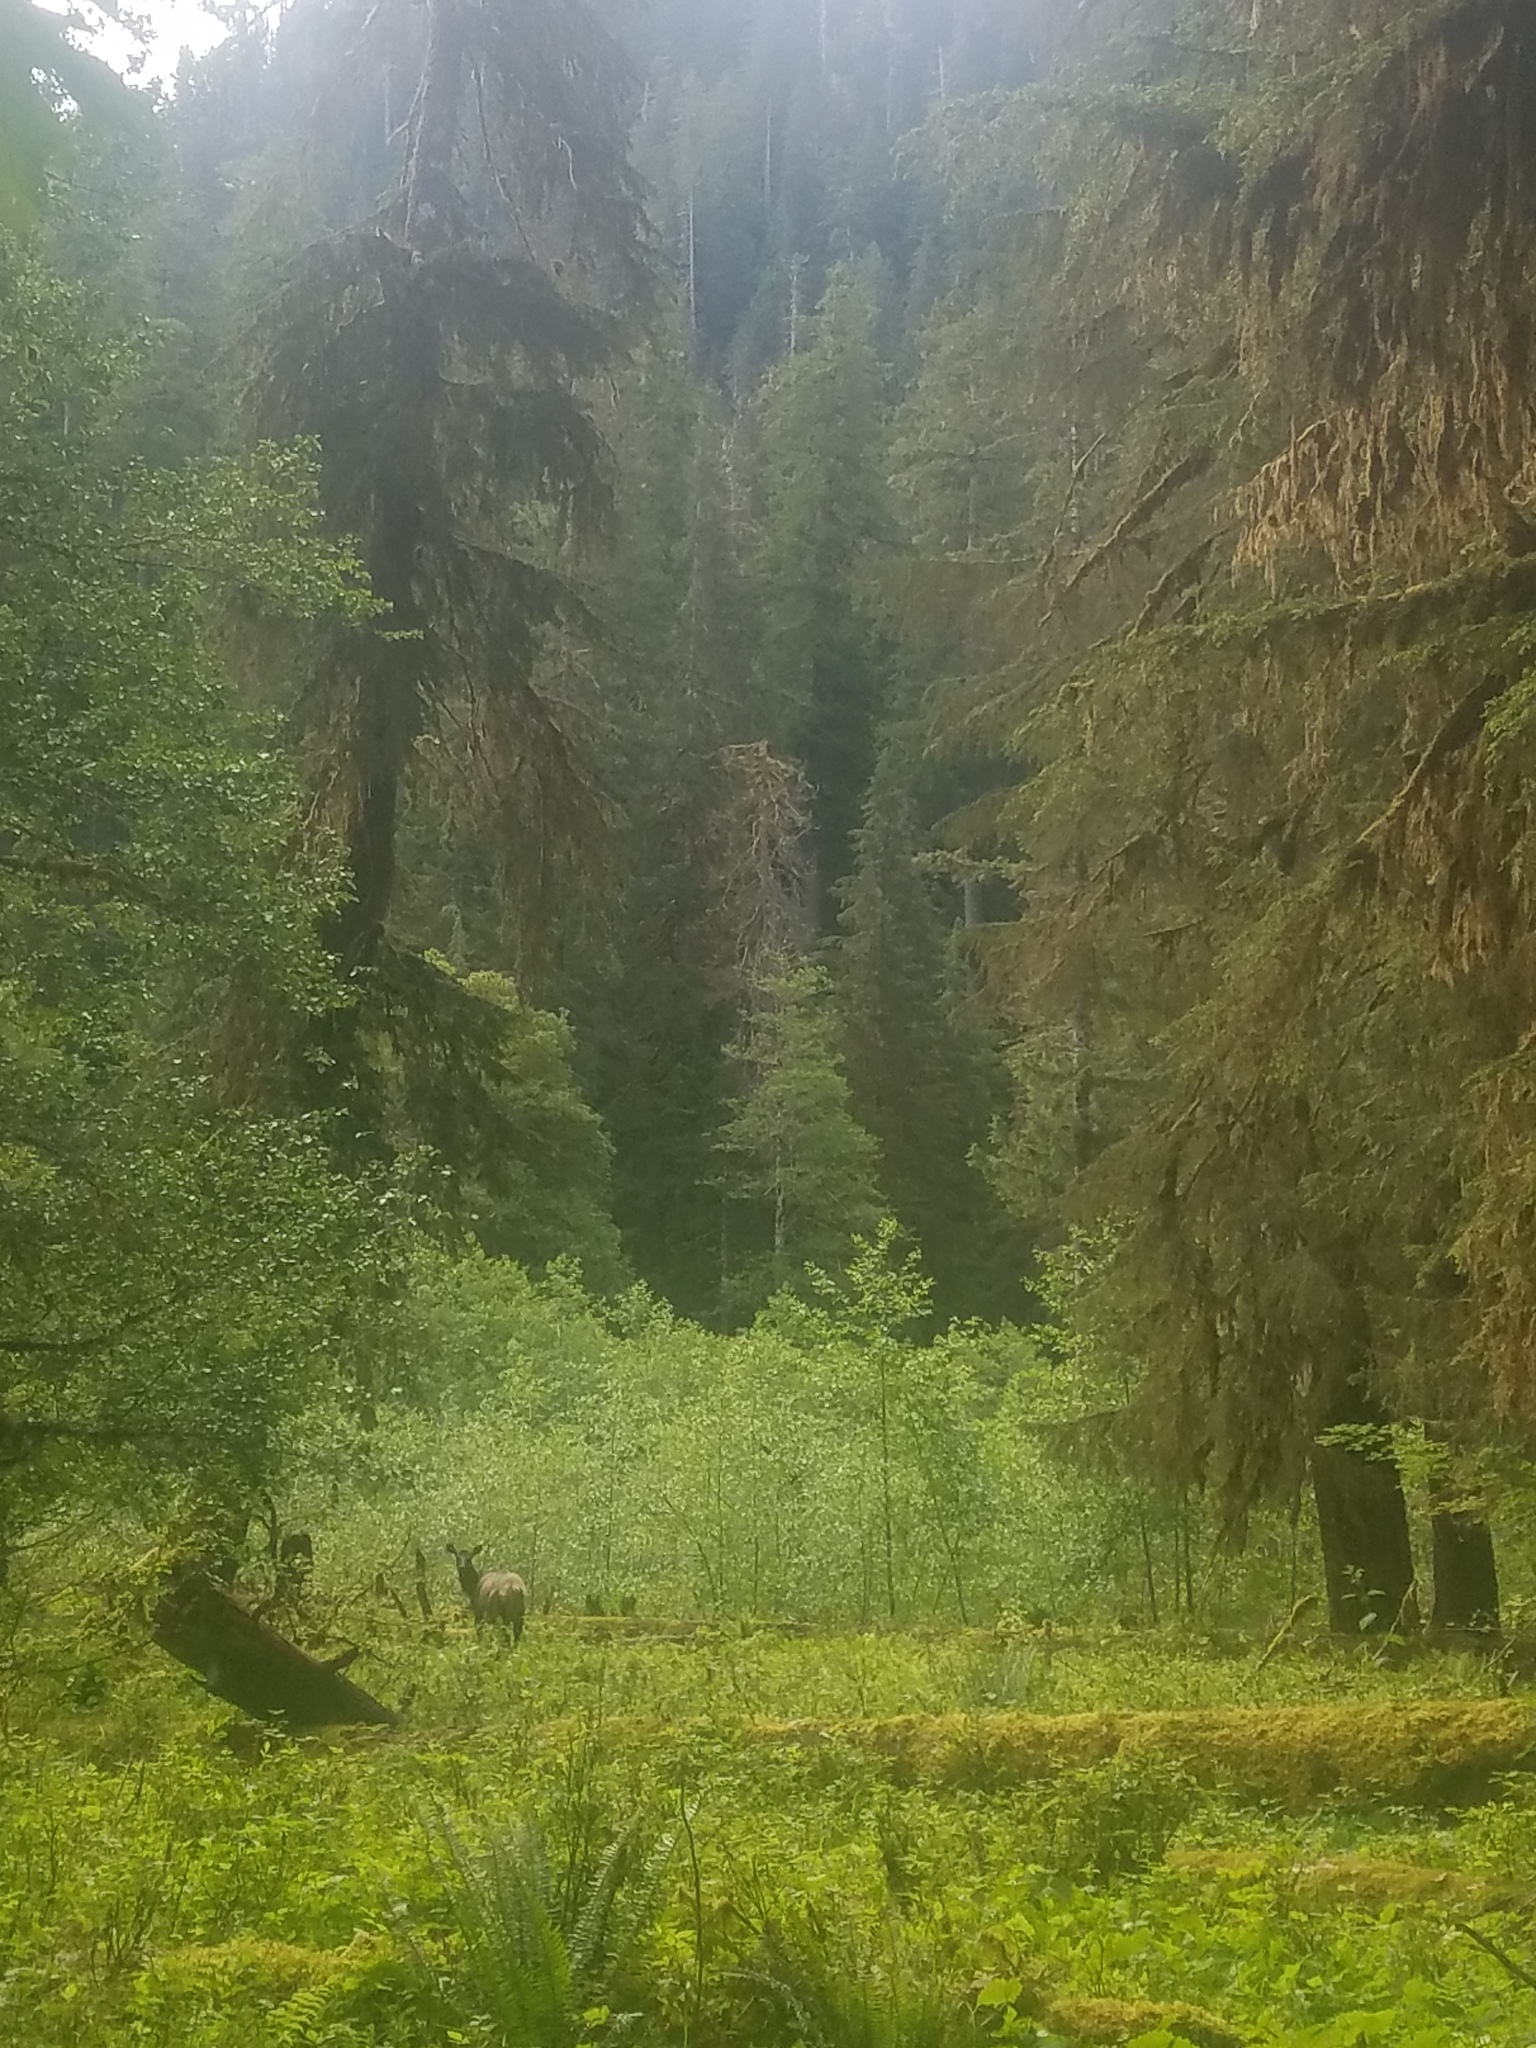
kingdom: Animalia
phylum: Chordata
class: Mammalia
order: Artiodactyla
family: Cervidae
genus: Cervus
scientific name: Cervus elaphus
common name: Red deer
